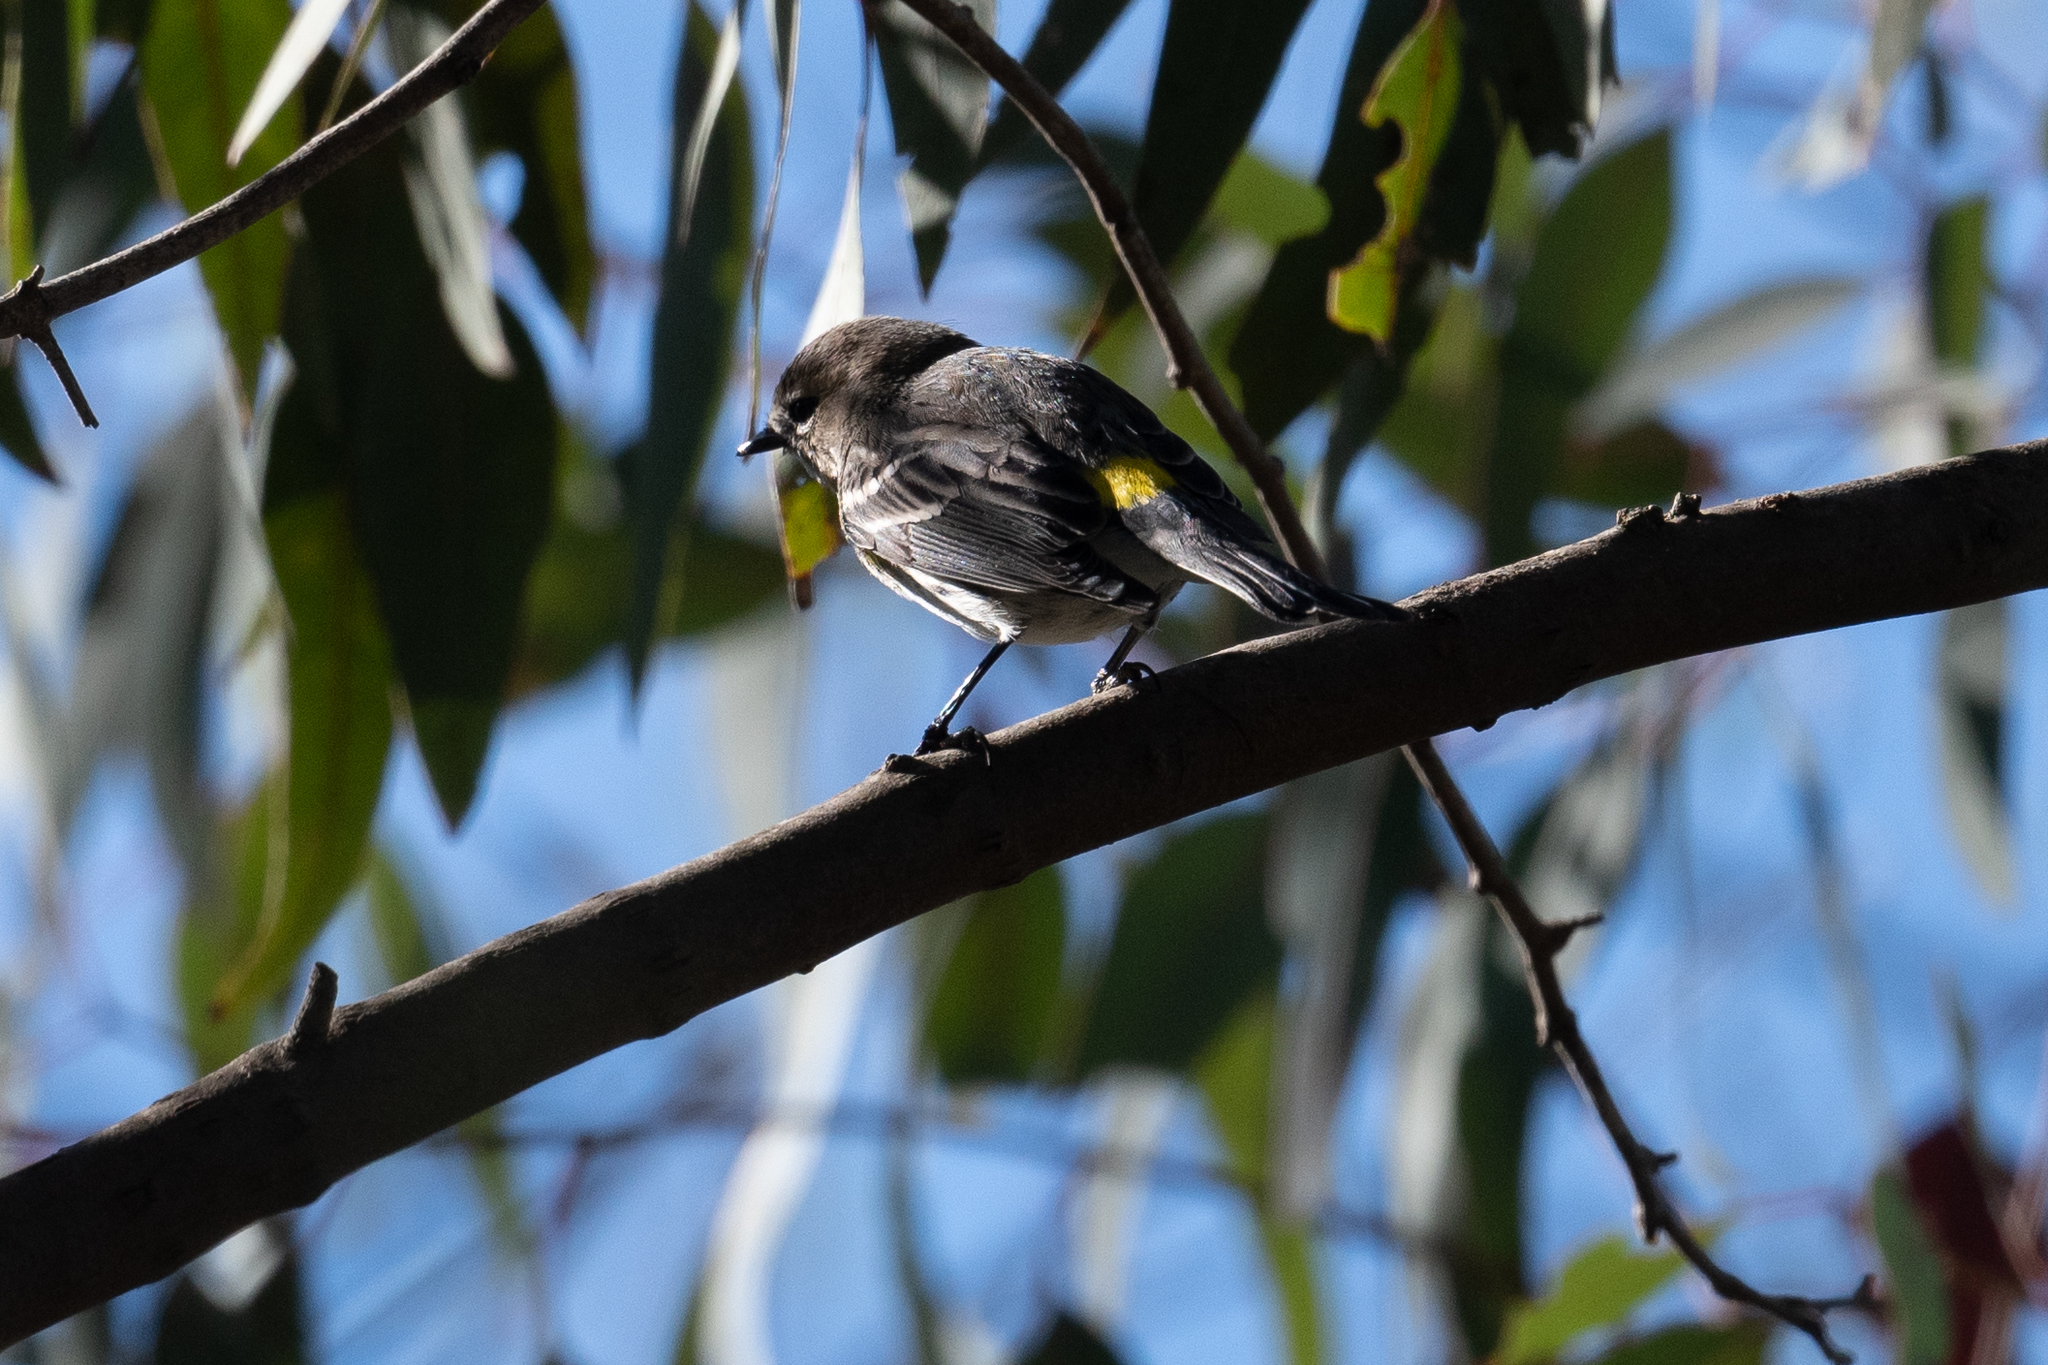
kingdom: Animalia
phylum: Chordata
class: Aves
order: Passeriformes
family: Parulidae
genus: Setophaga
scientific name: Setophaga coronata
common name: Myrtle warbler
